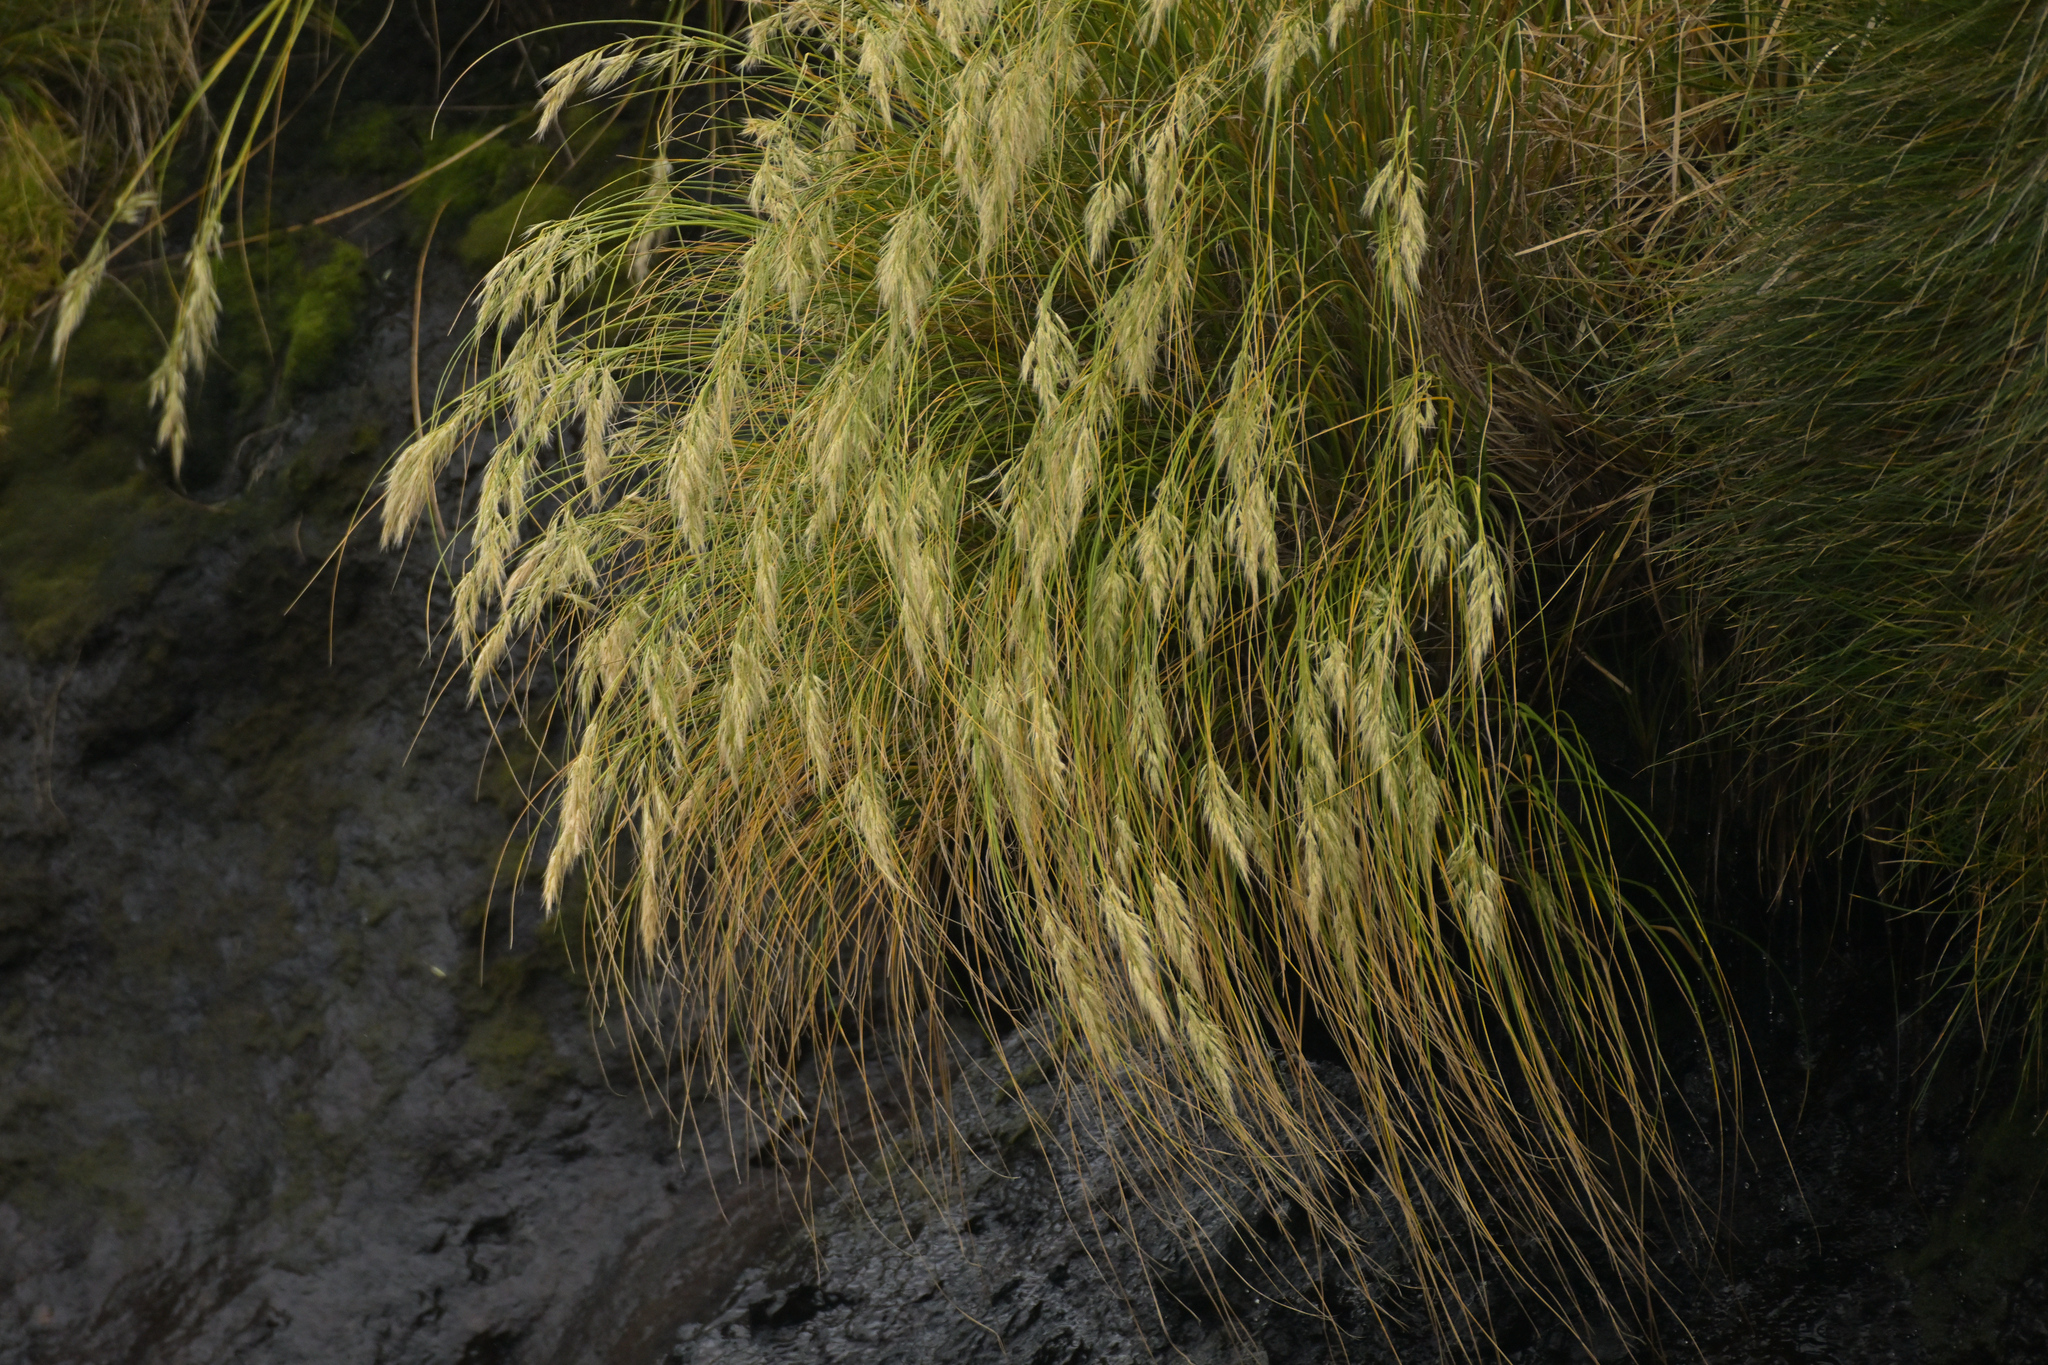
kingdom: Plantae
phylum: Tracheophyta
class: Liliopsida
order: Poales
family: Poaceae
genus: Chionochloa
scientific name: Chionochloa antarctica
